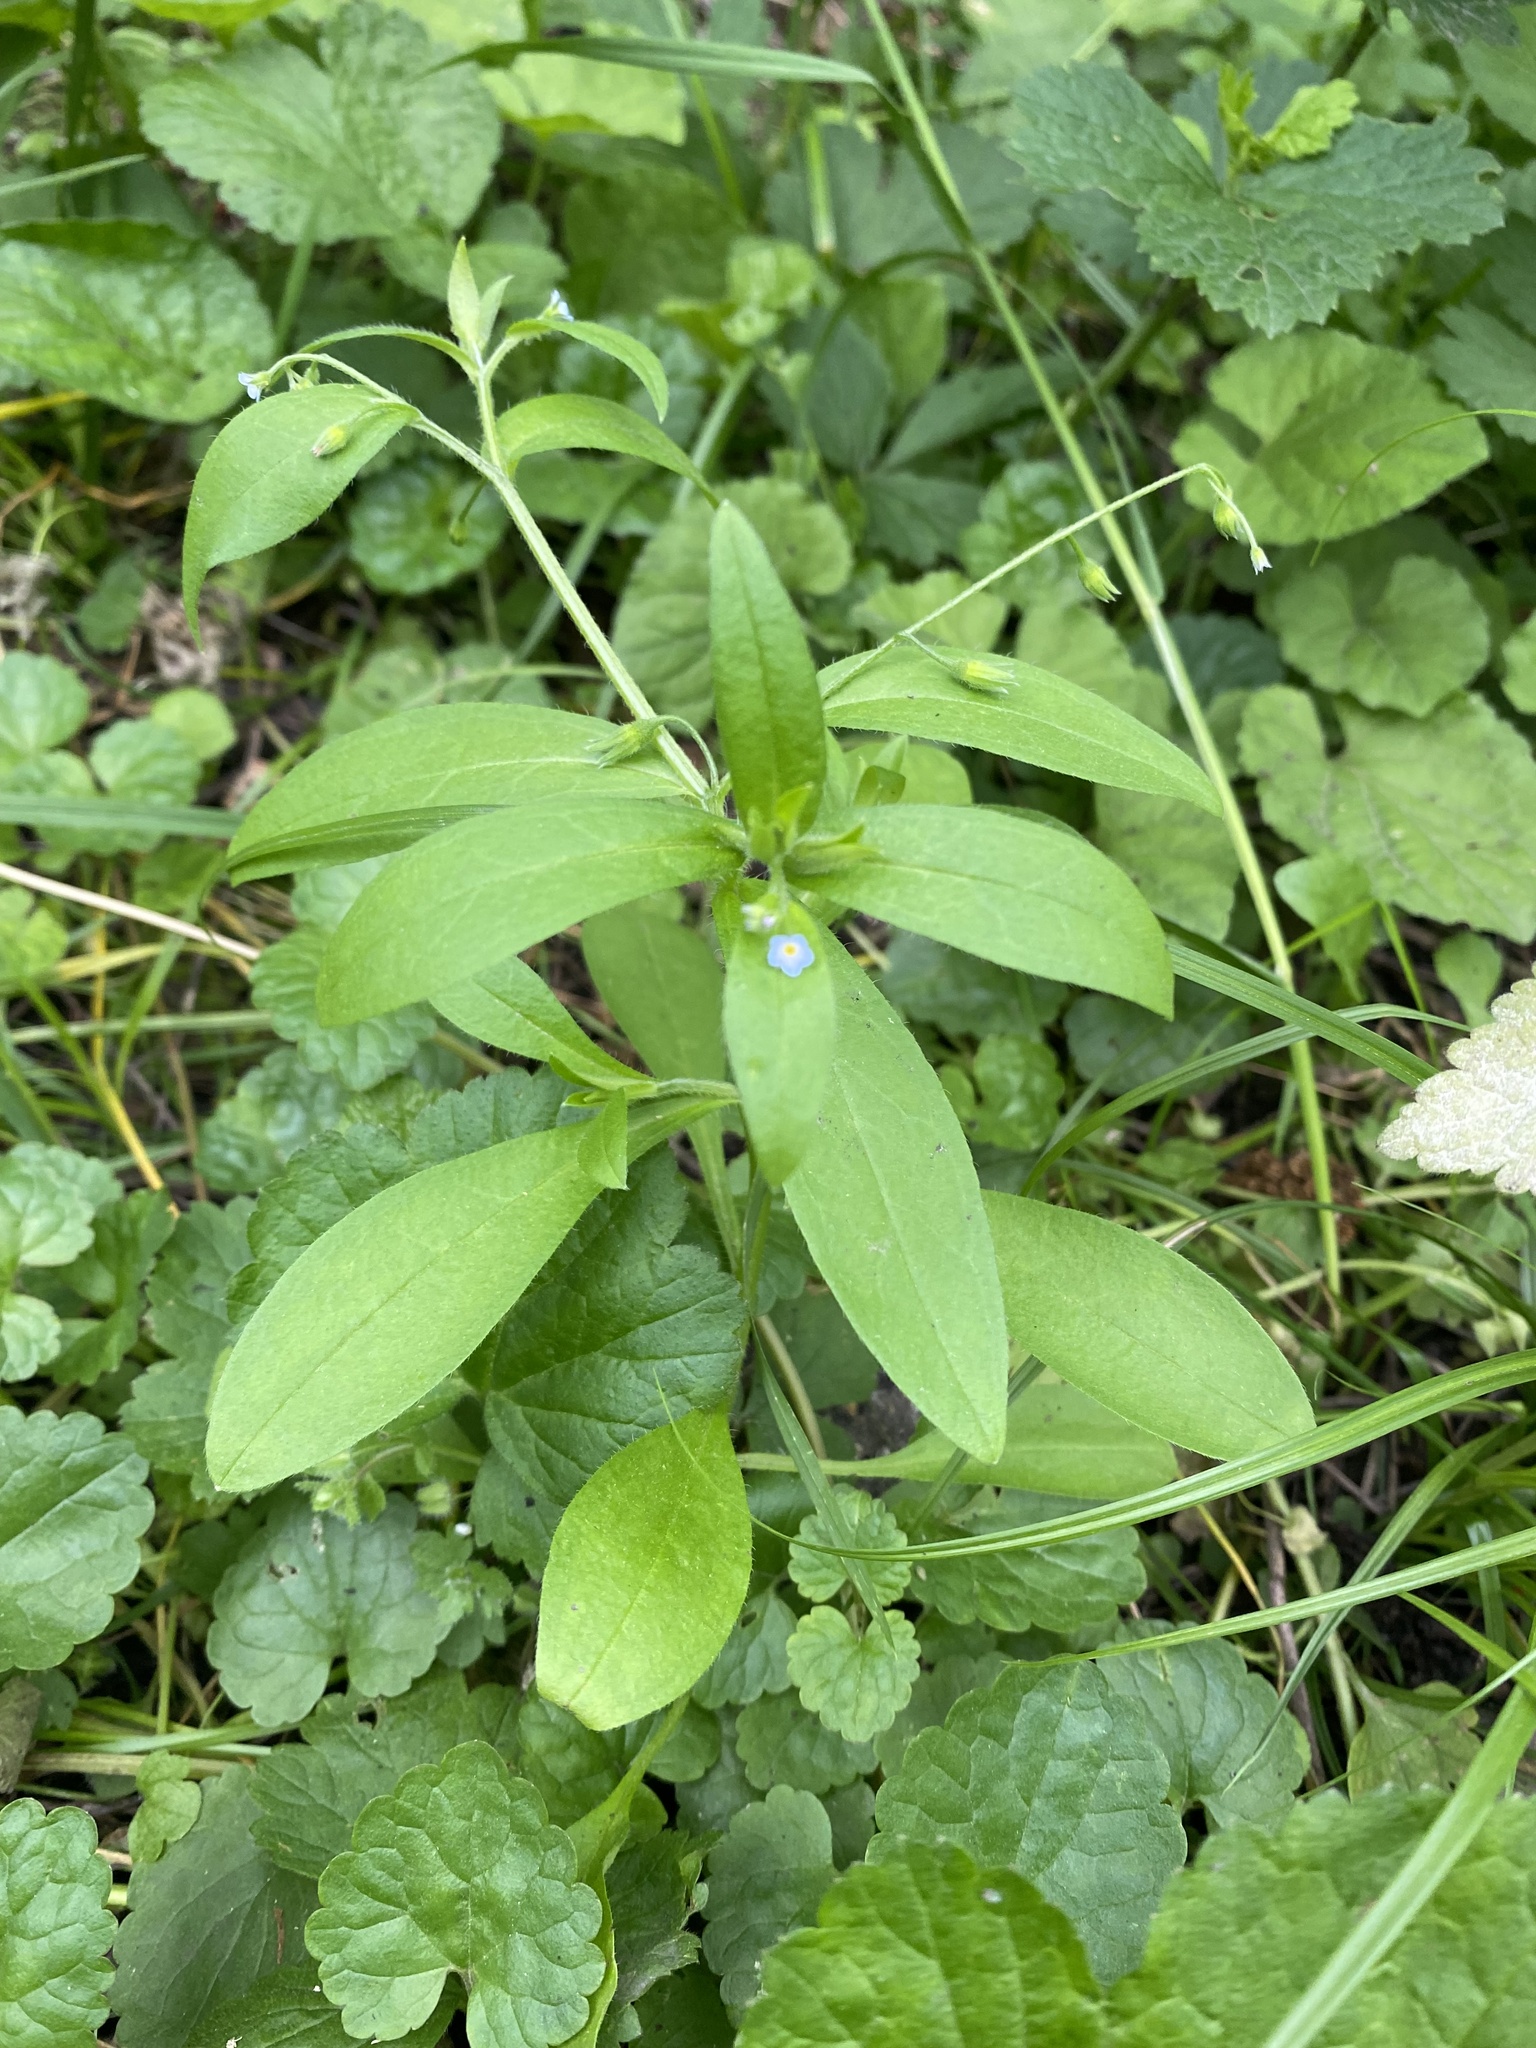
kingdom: Plantae
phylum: Tracheophyta
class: Magnoliopsida
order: Boraginales
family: Boraginaceae
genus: Myosotis
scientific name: Myosotis sparsiflora
